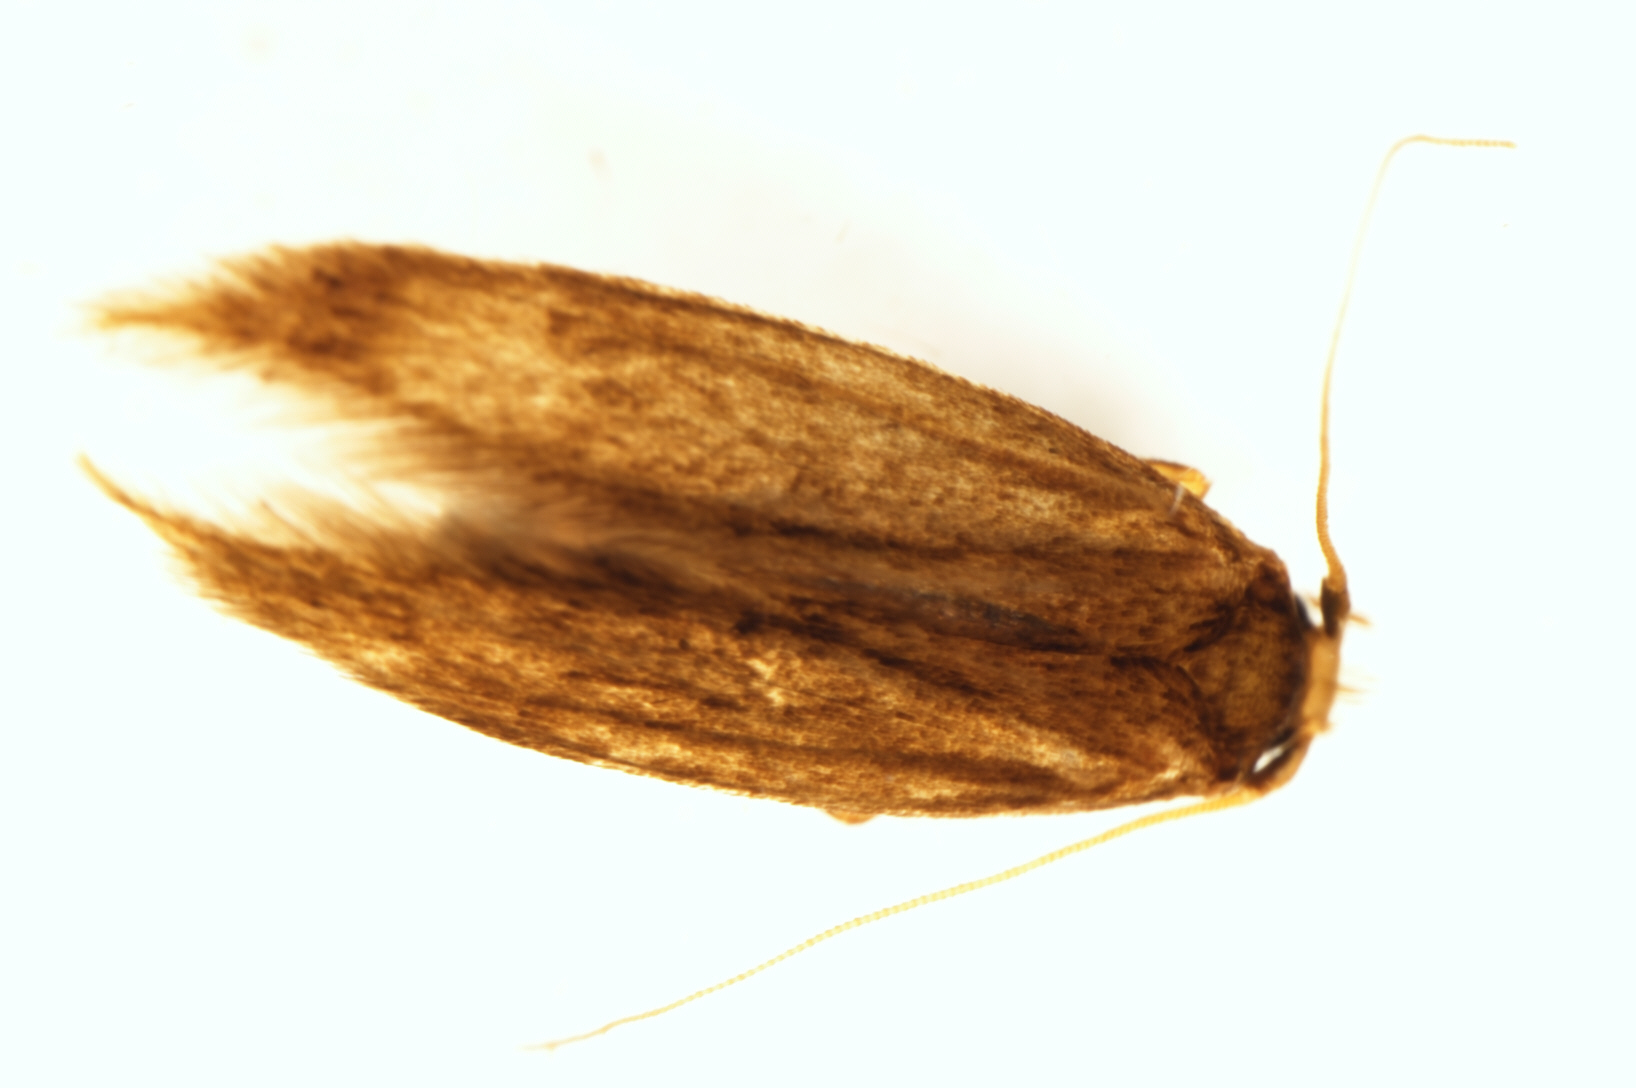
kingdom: Animalia
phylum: Arthropoda
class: Insecta
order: Lepidoptera
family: Tineidae
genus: Opogona
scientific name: Opogona omoscopa
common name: Moth
